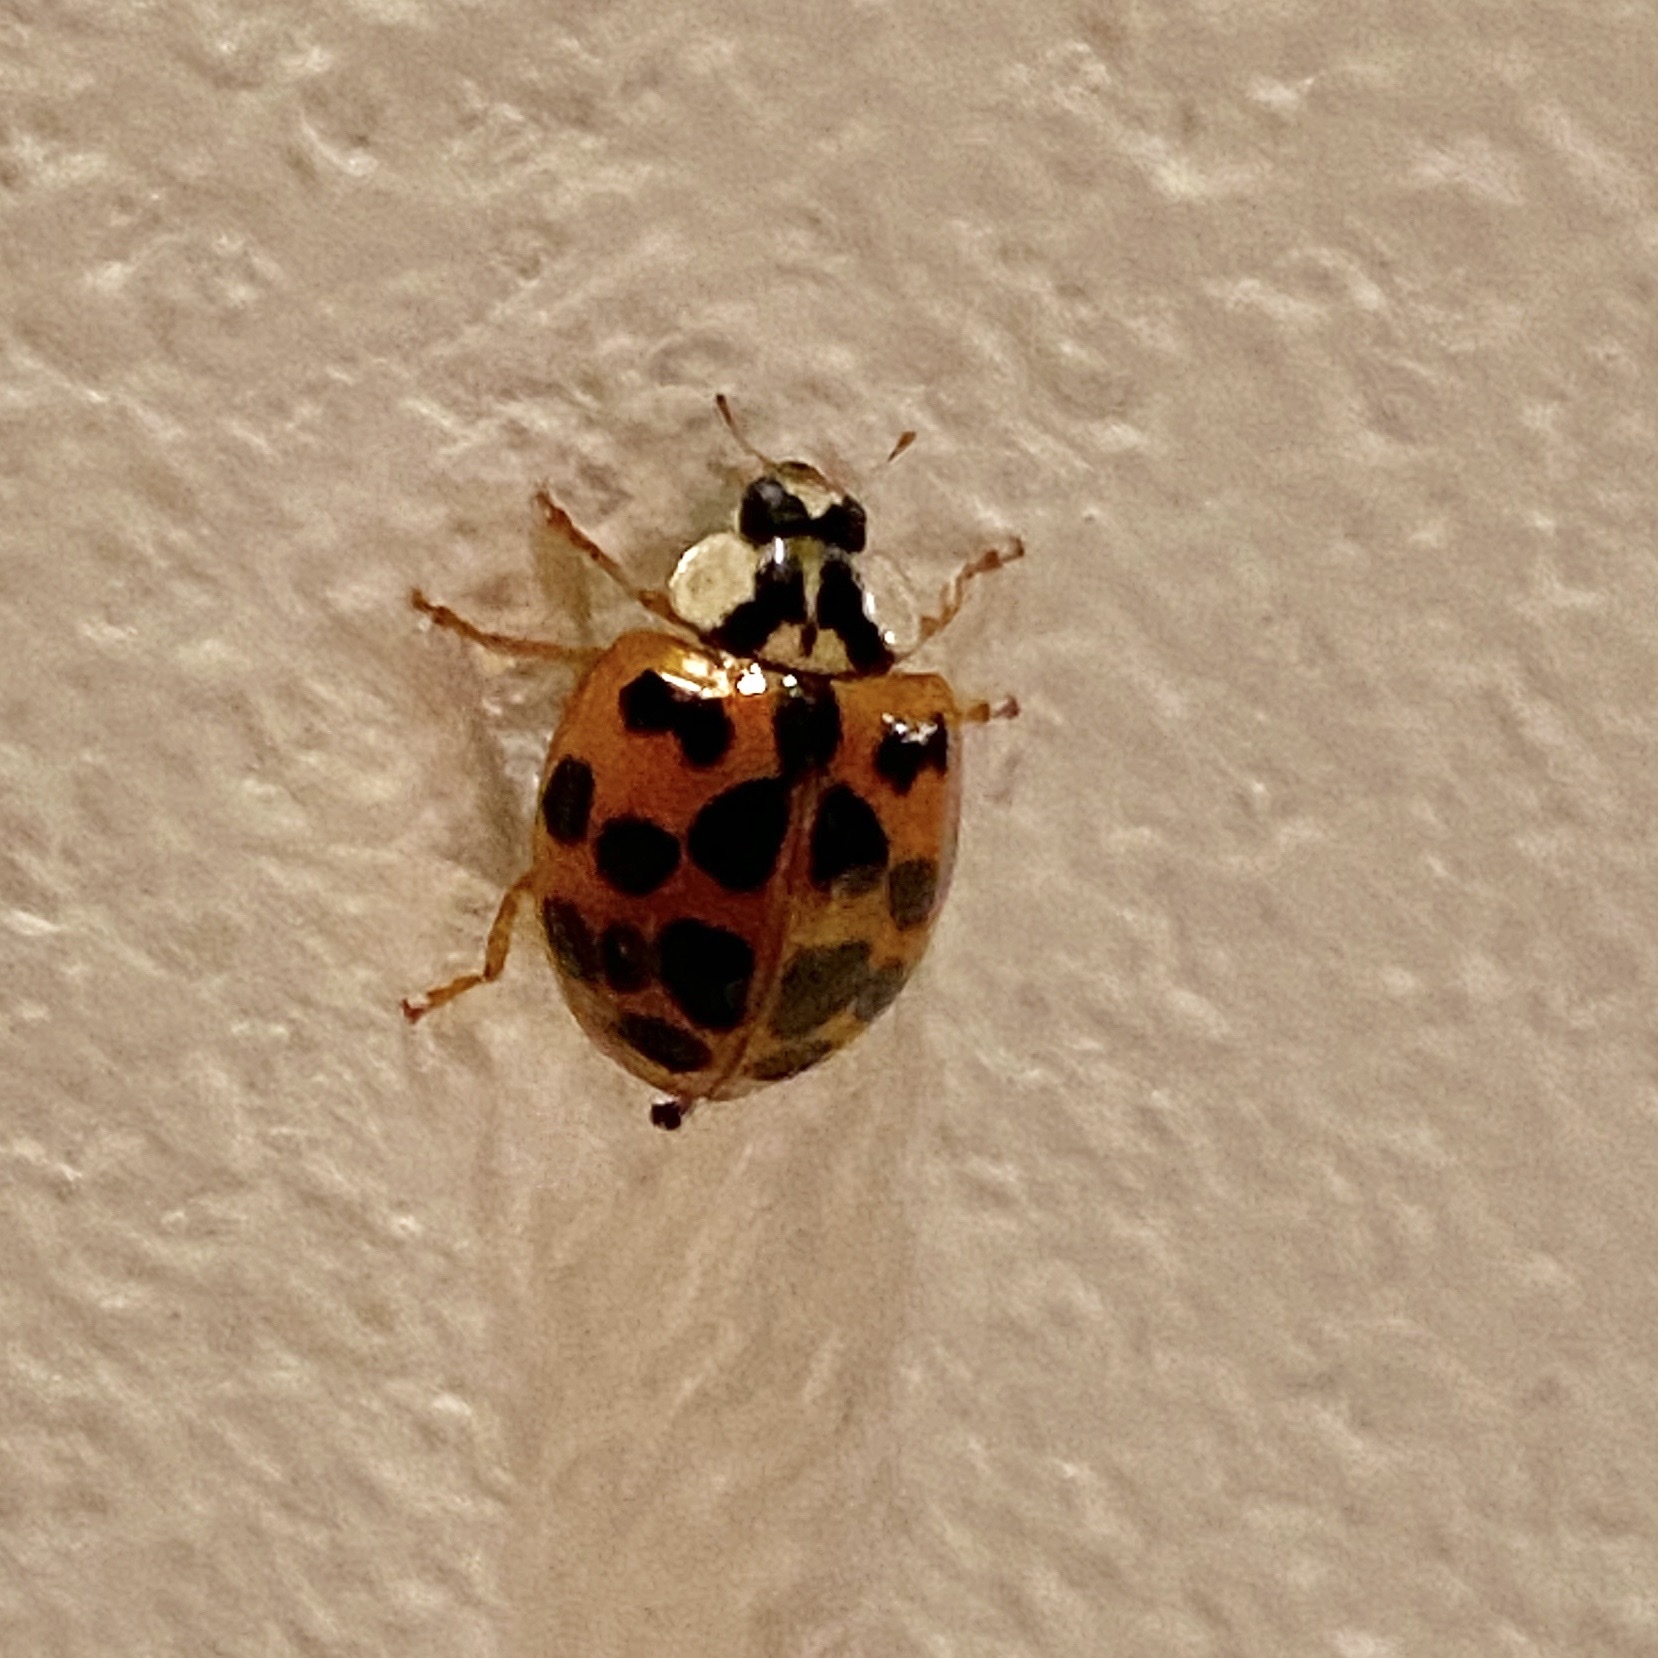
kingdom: Animalia
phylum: Arthropoda
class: Insecta
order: Coleoptera
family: Coccinellidae
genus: Harmonia
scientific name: Harmonia axyridis
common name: Harlequin ladybird
